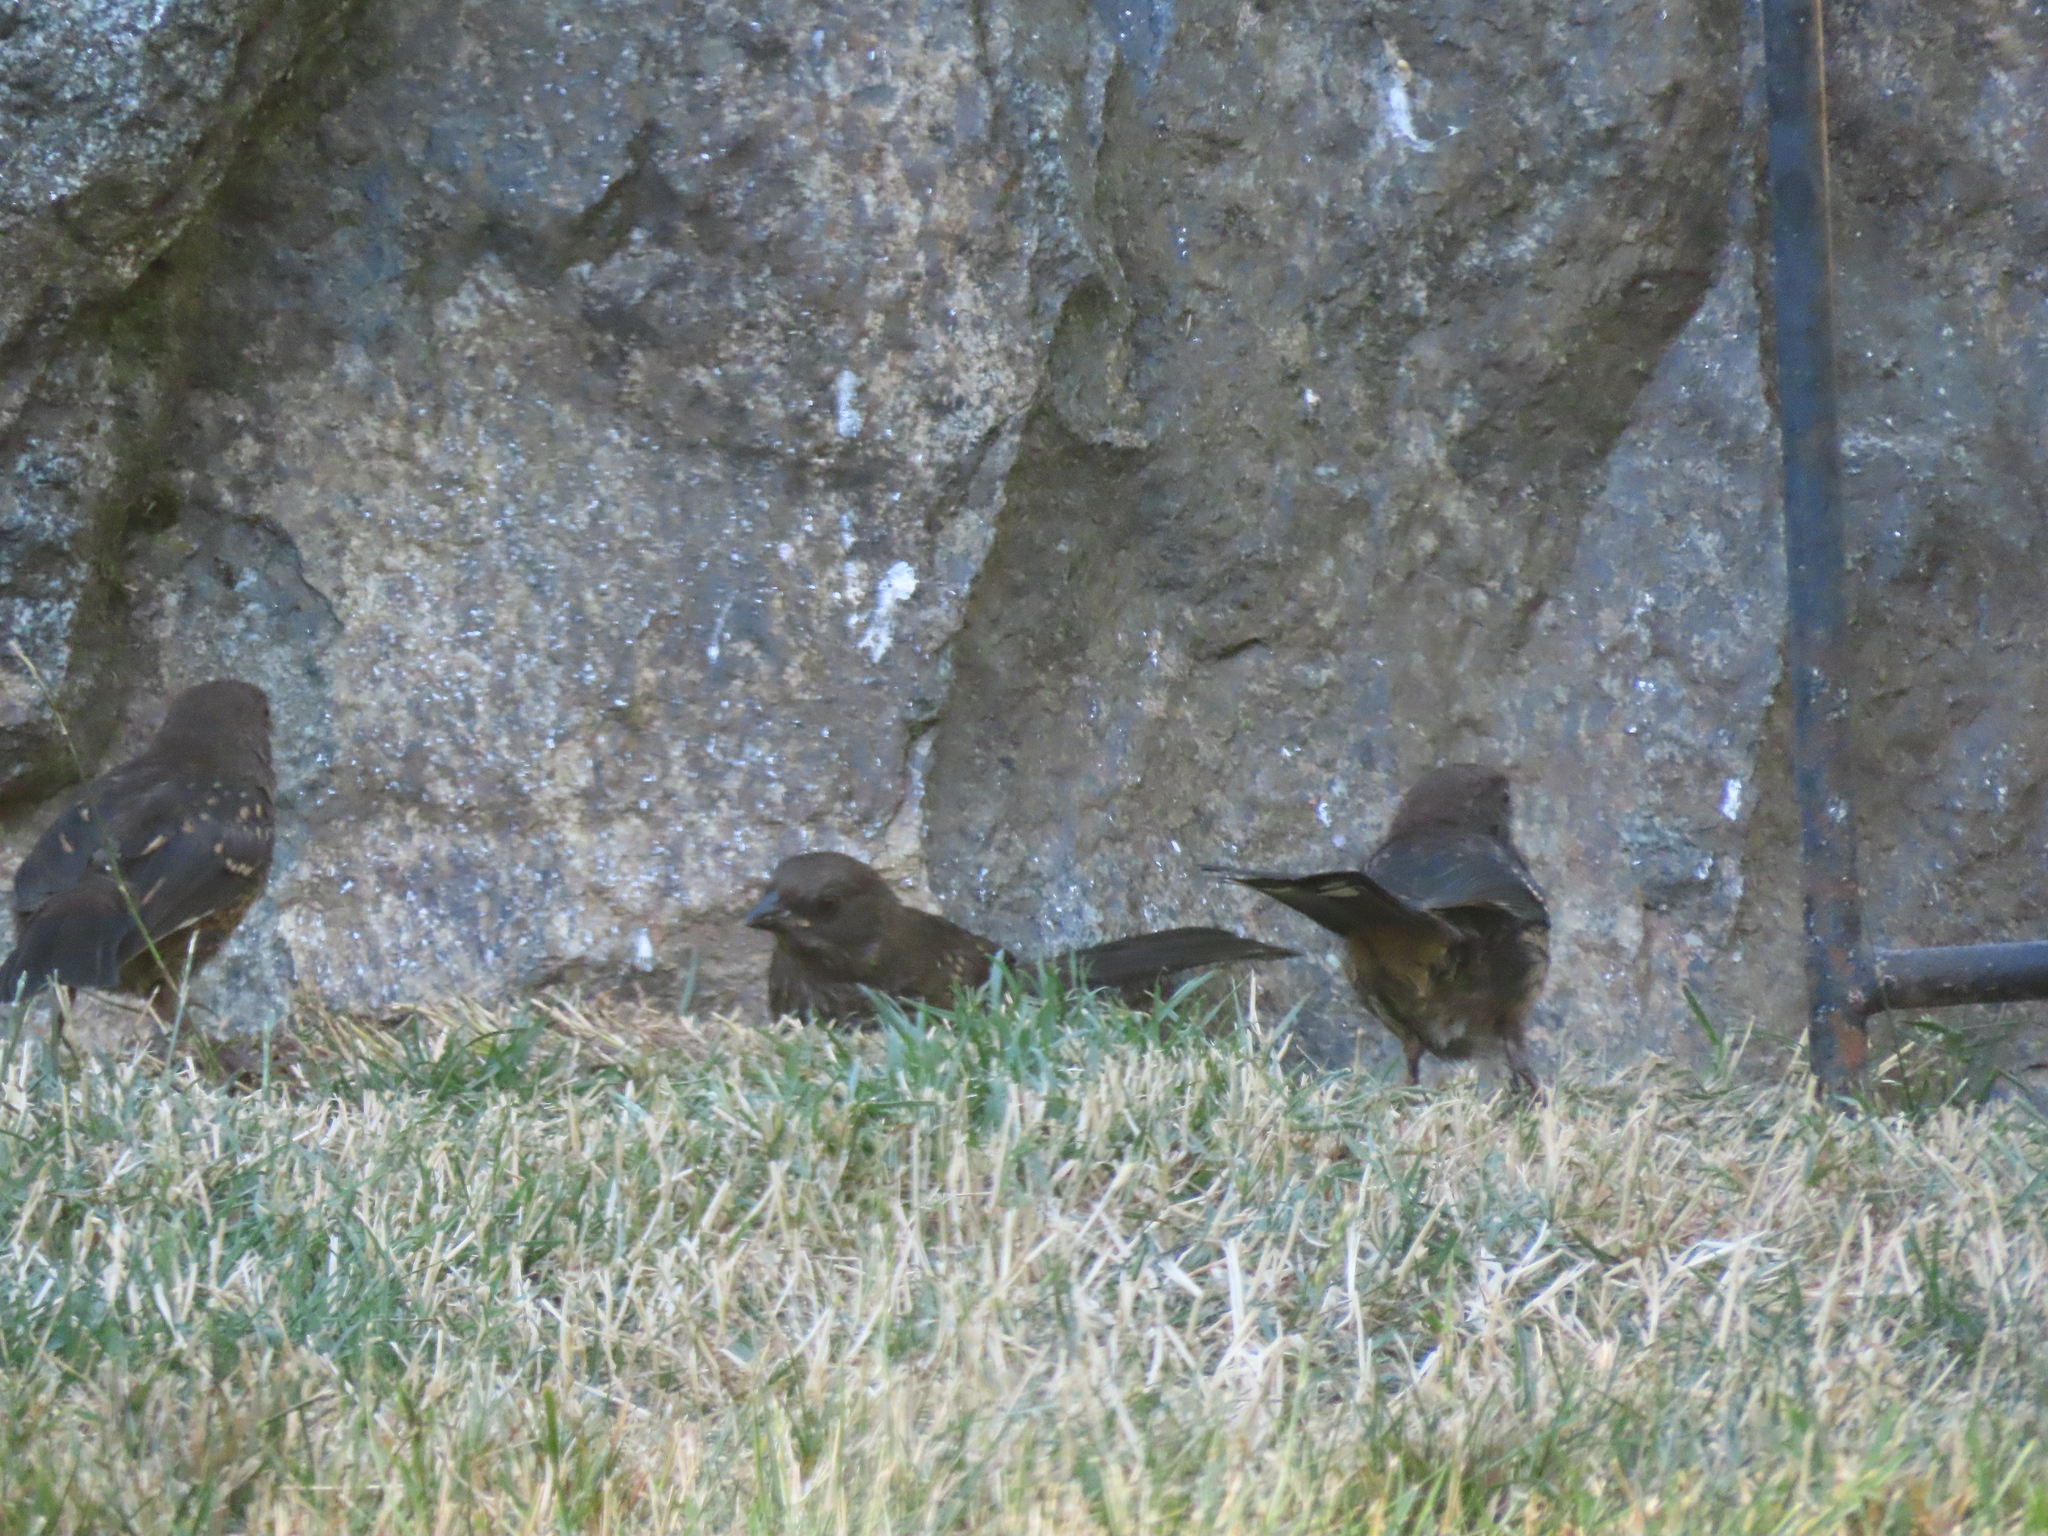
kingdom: Animalia
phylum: Chordata
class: Aves
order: Passeriformes
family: Passerellidae
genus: Pipilo
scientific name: Pipilo maculatus
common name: Spotted towhee
